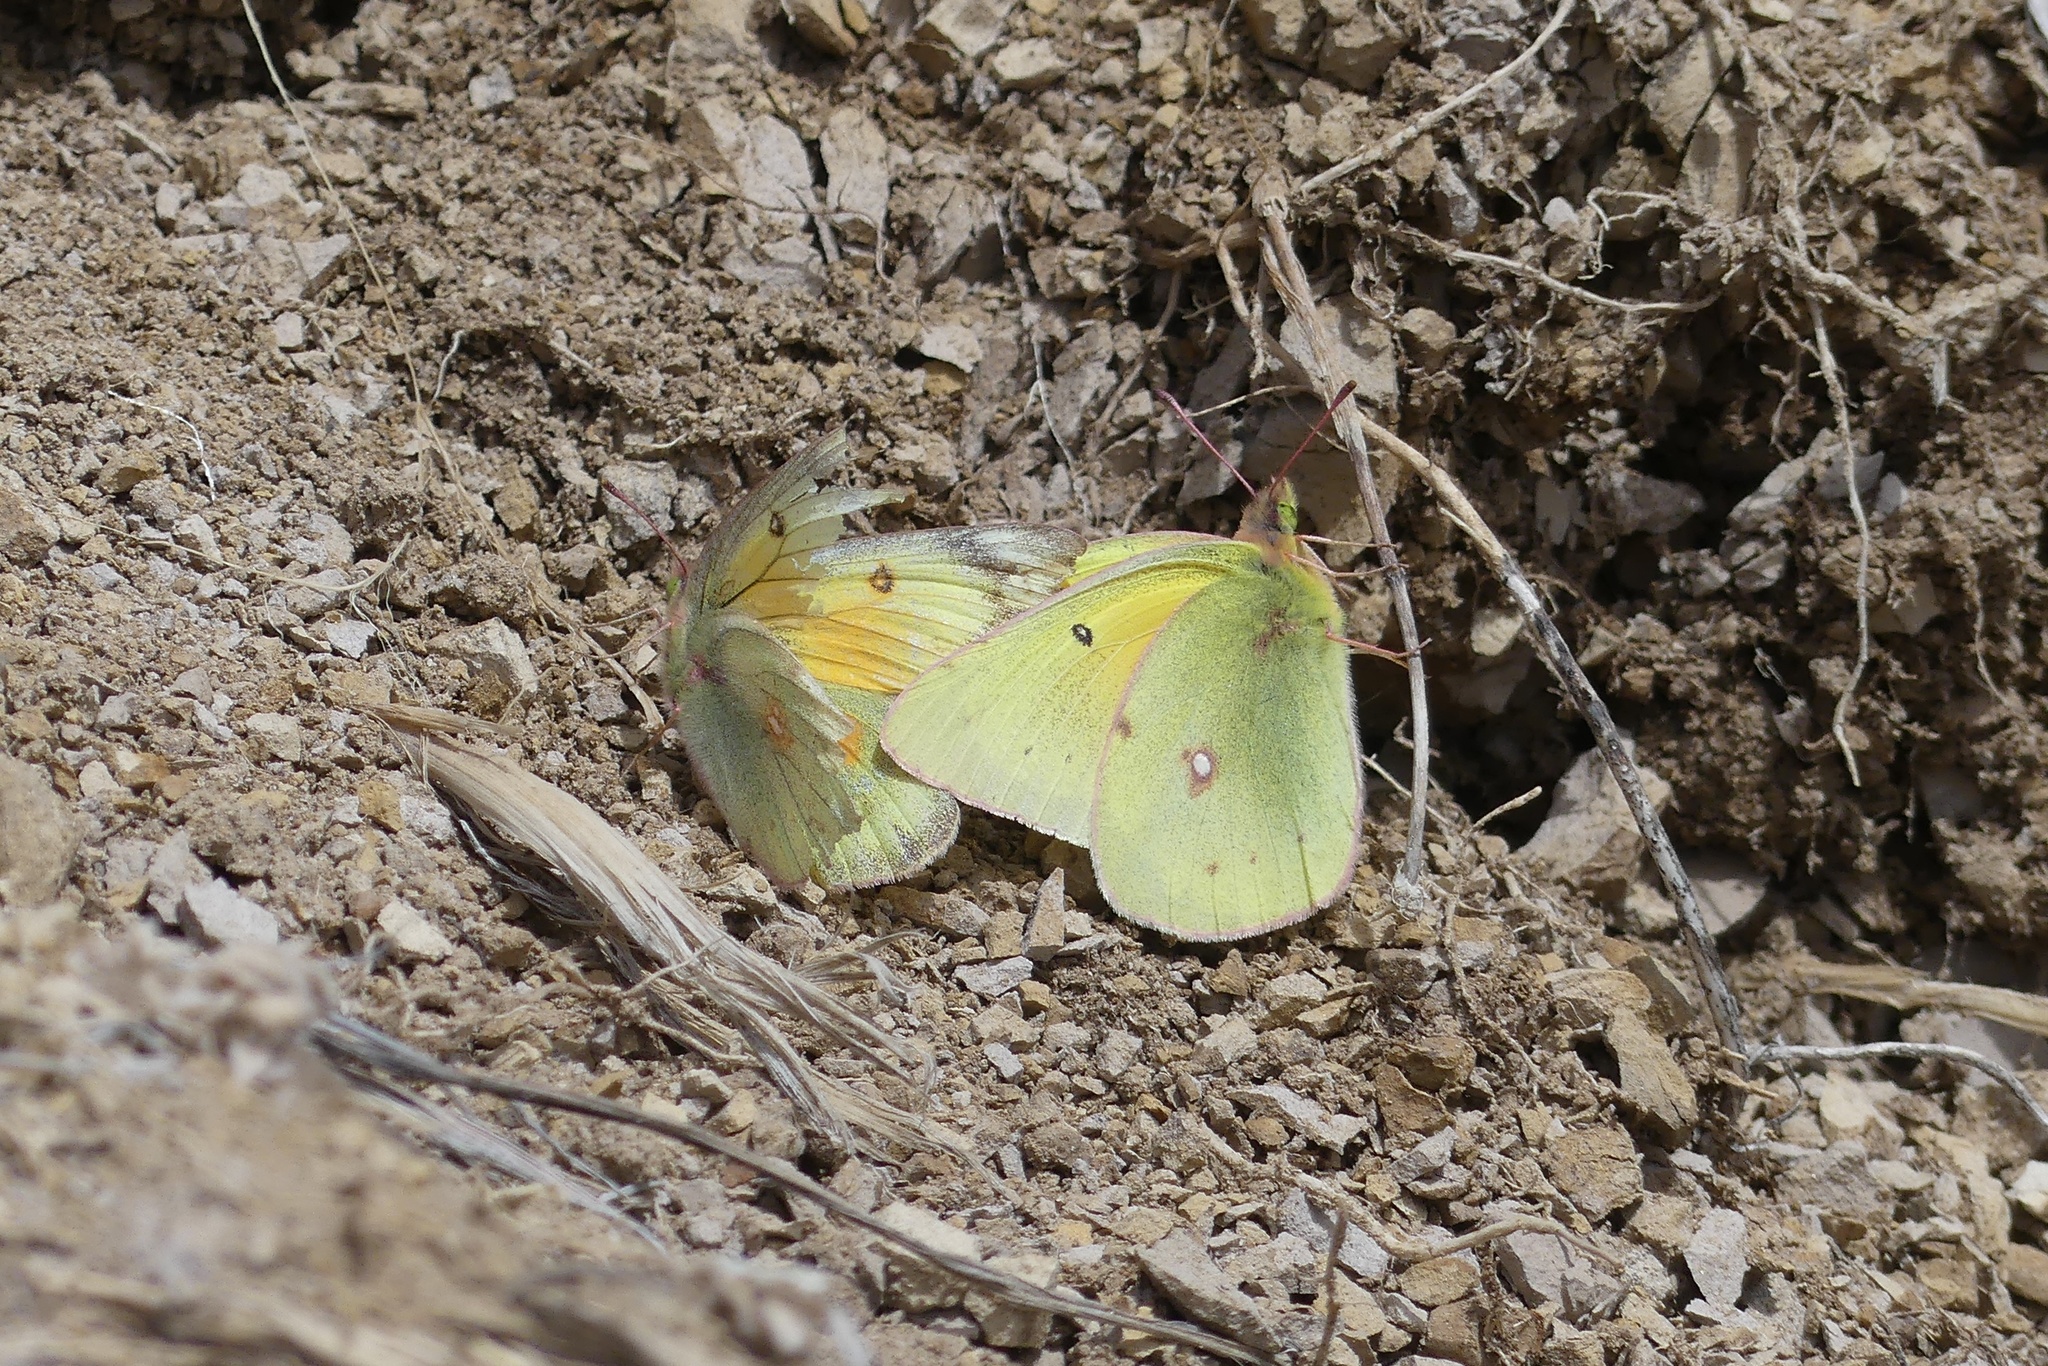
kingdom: Animalia
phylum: Arthropoda
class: Insecta
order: Lepidoptera
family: Pieridae
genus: Colias
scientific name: Colias eurytheme
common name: Alfalfa butterfly
